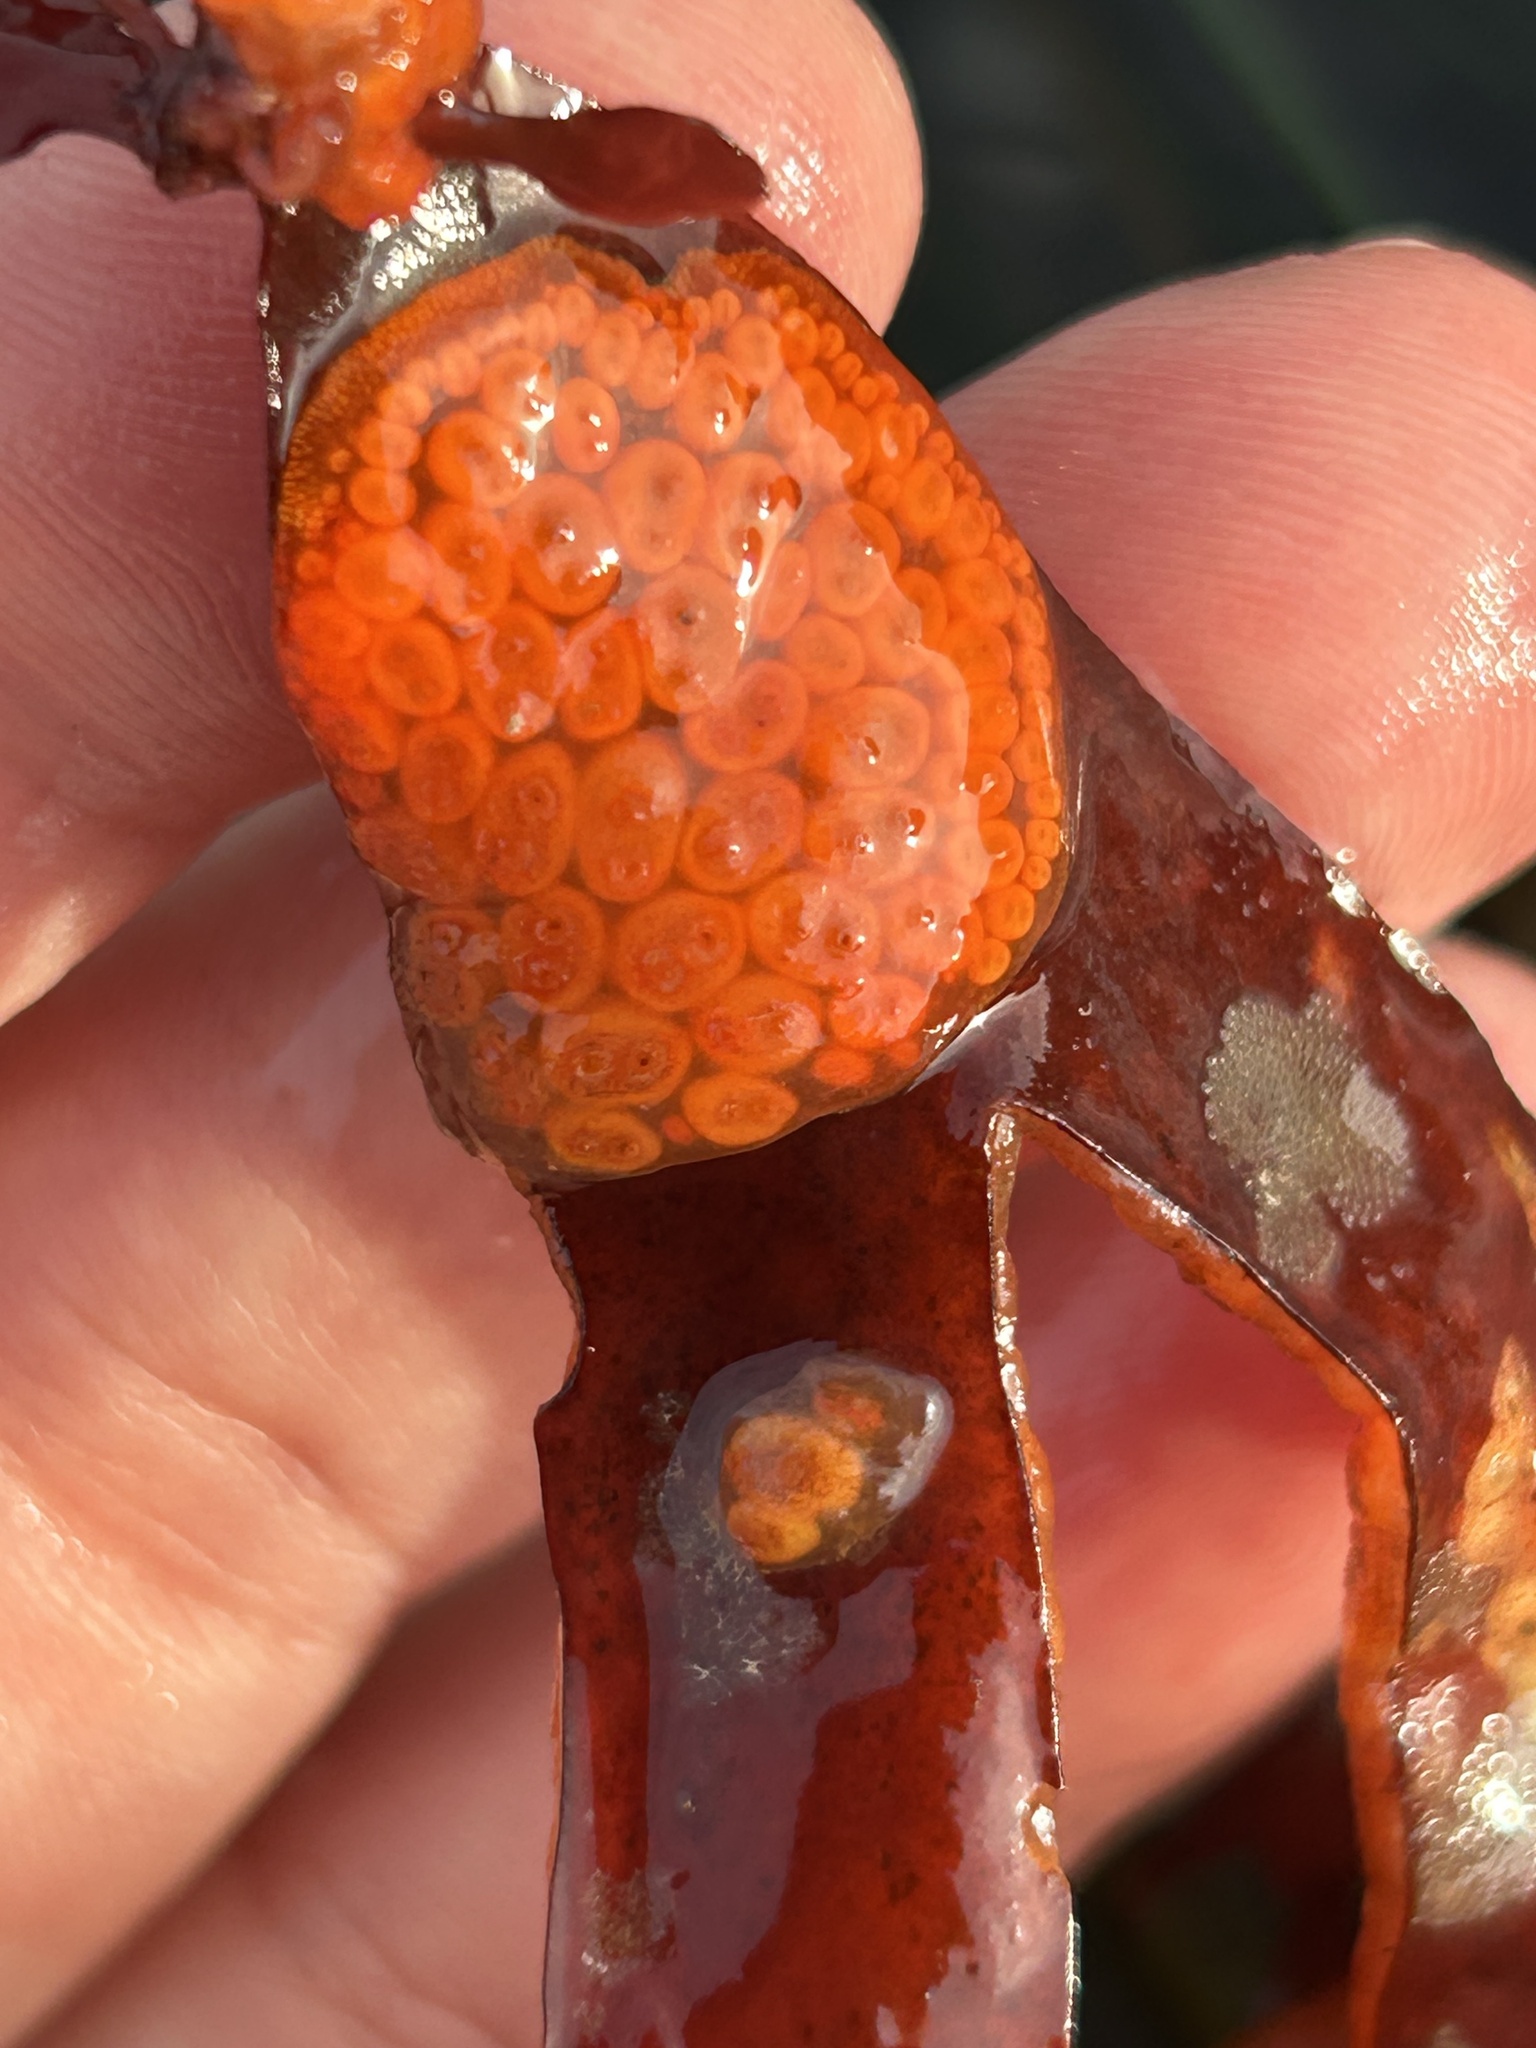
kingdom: Animalia
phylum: Chordata
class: Ascidiacea
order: Stolidobranchia
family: Styelidae
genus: Metandrocarpa
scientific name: Metandrocarpa dura
